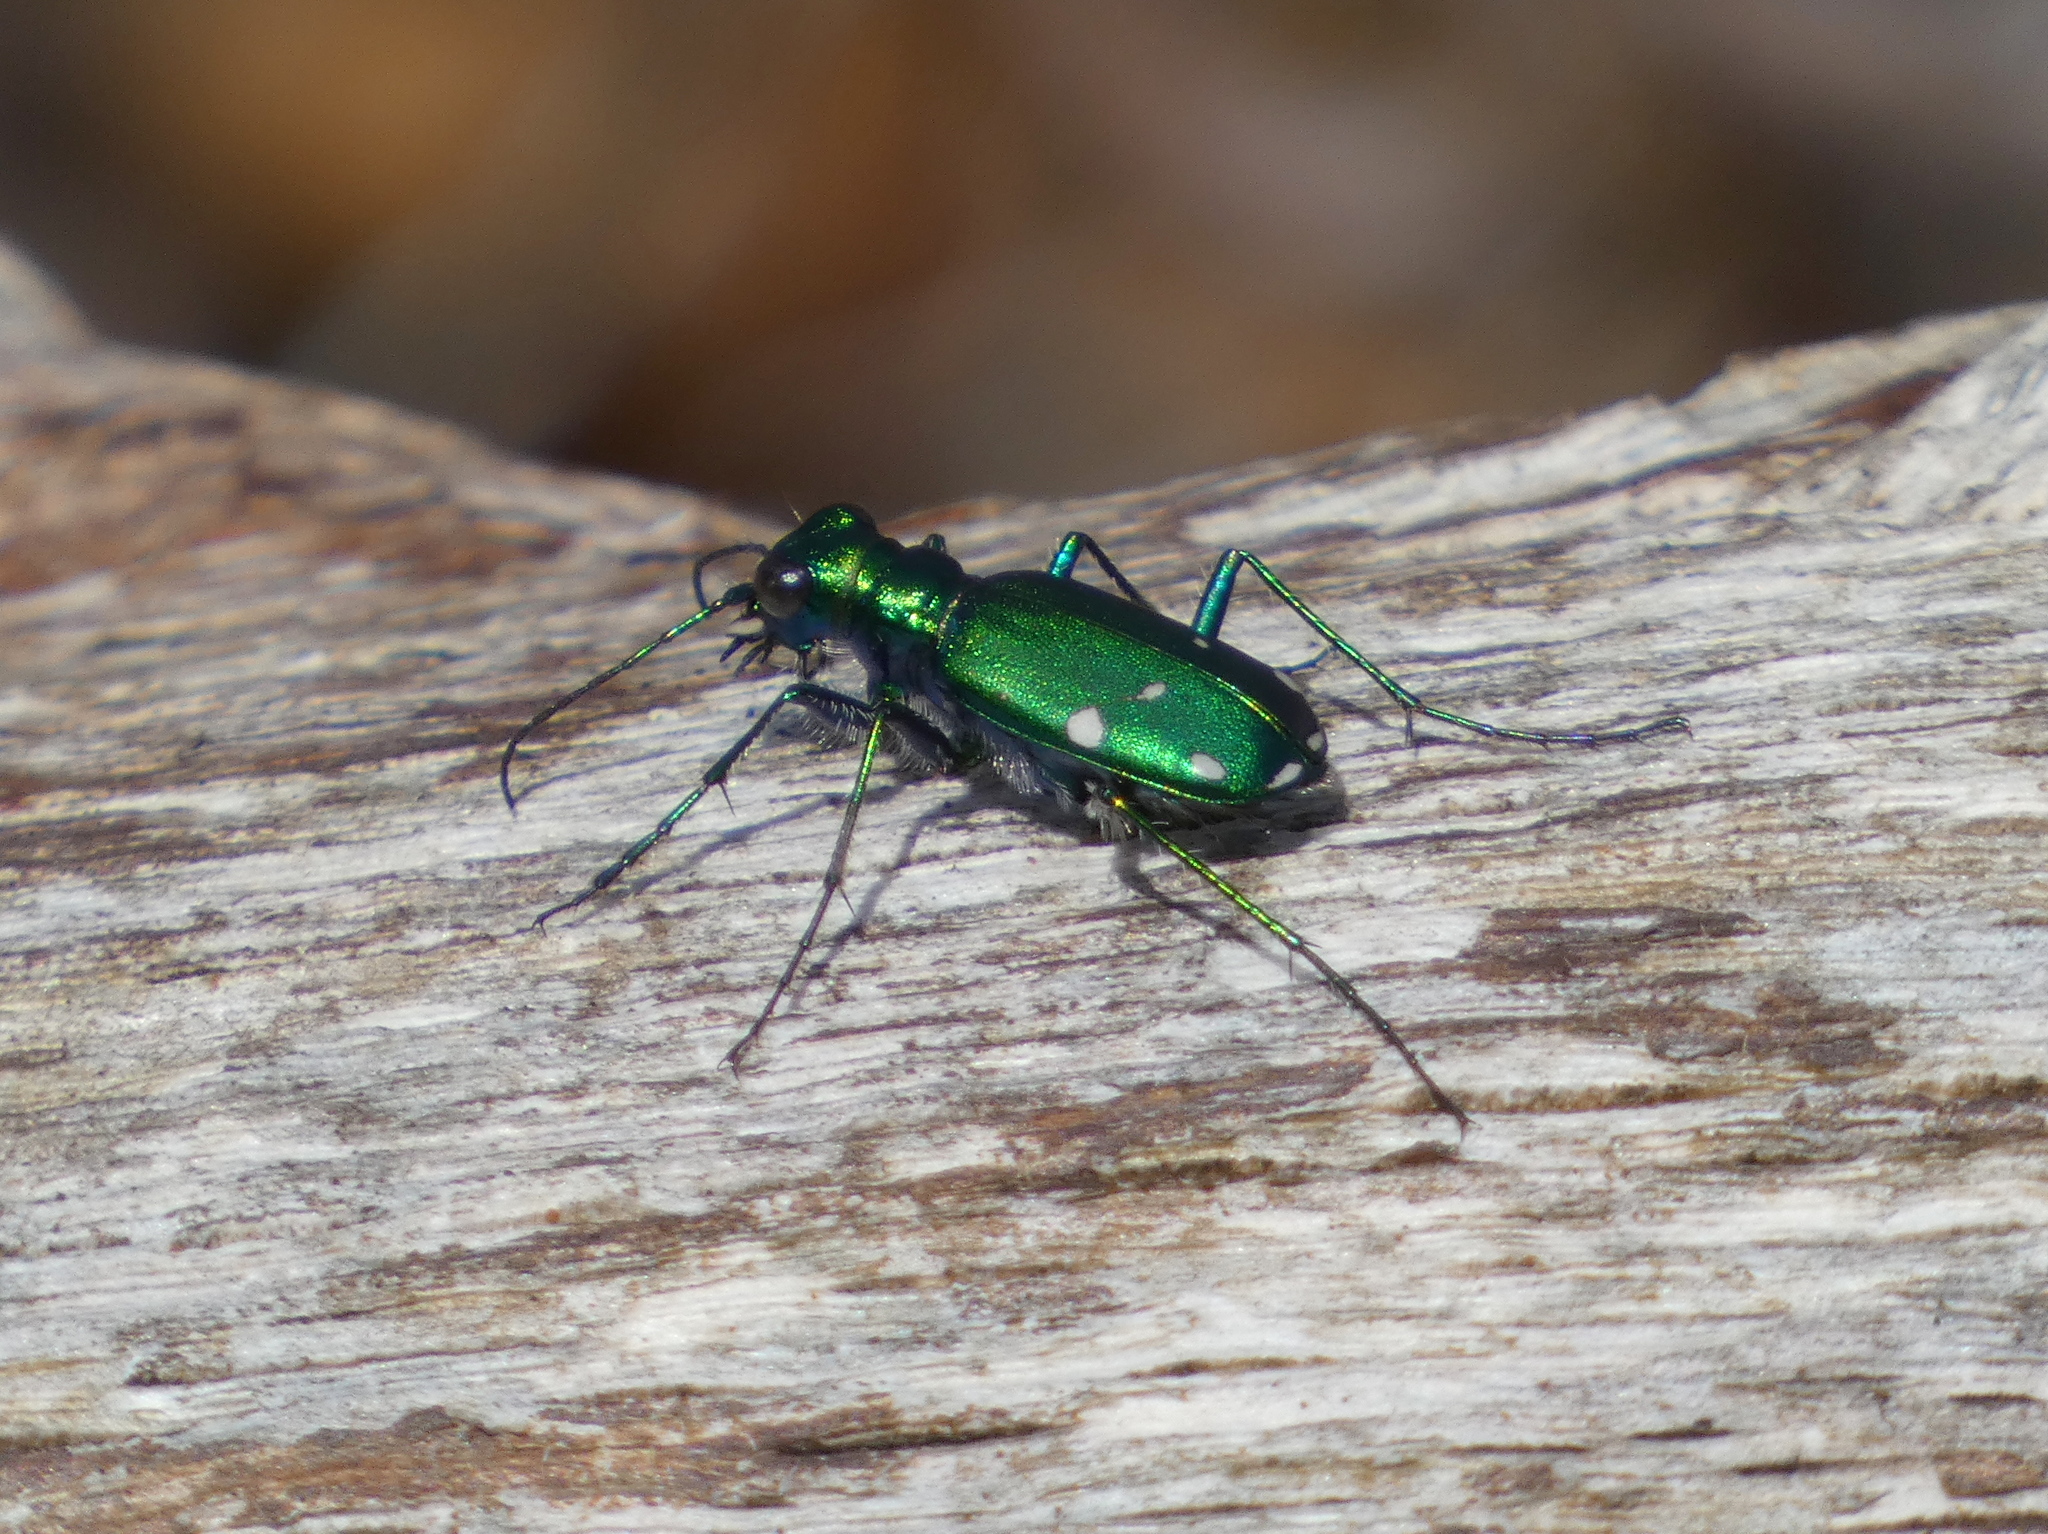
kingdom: Animalia
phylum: Arthropoda
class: Insecta
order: Coleoptera
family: Carabidae
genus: Cicindela
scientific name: Cicindela sexguttata
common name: Six-spotted tiger beetle
